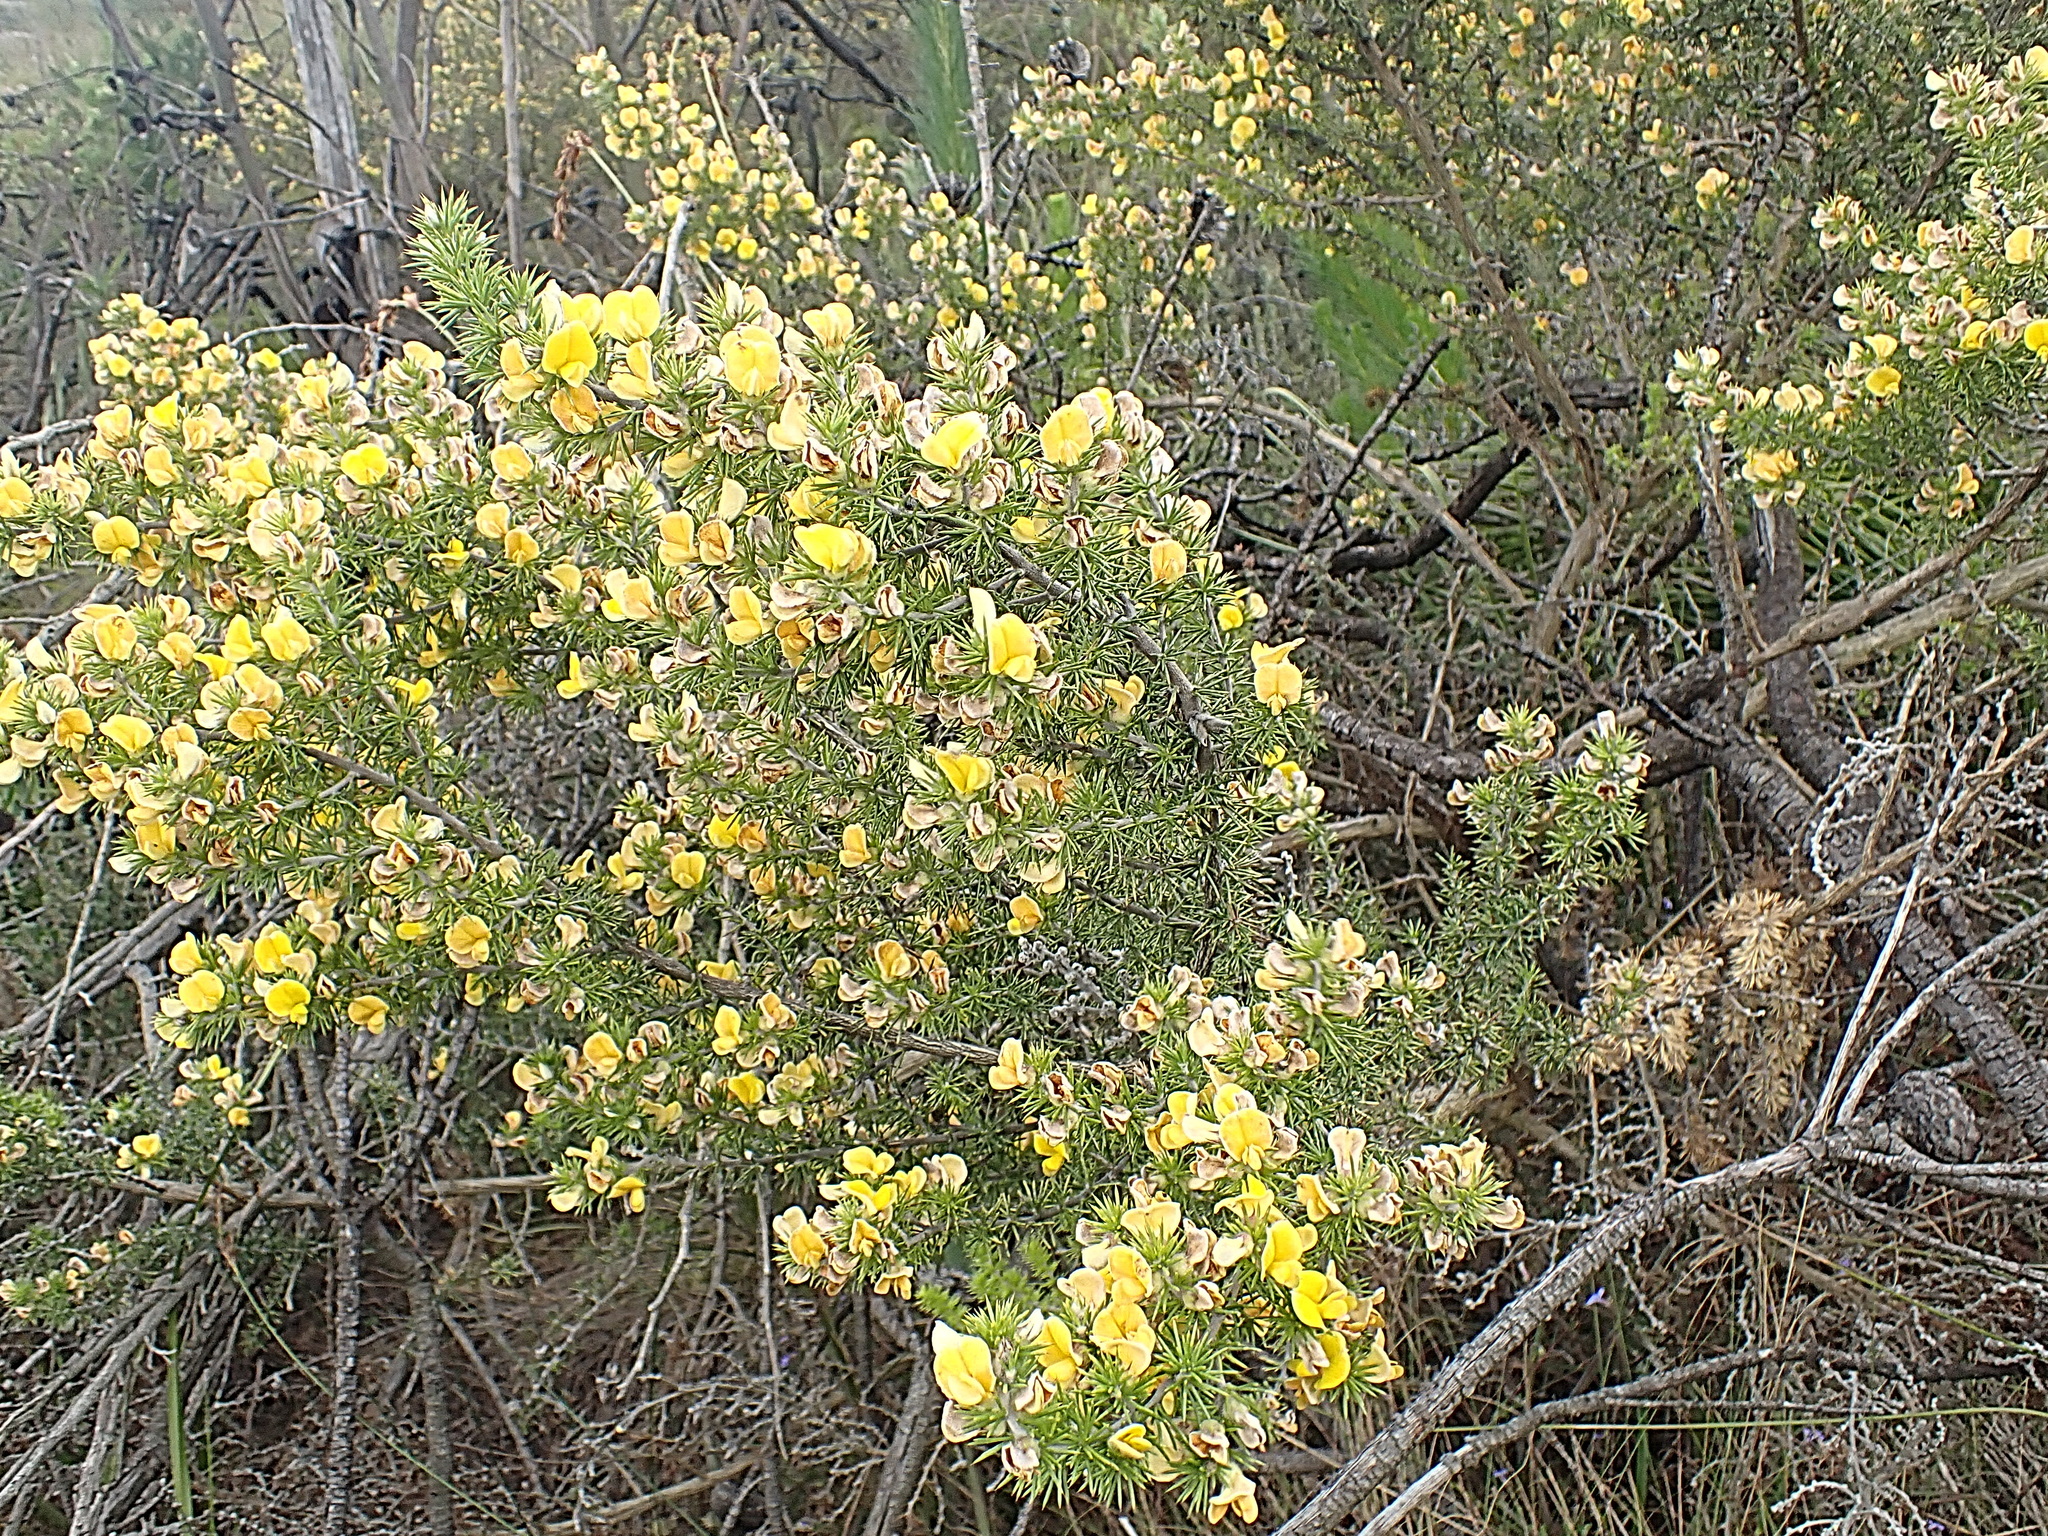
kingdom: Plantae
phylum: Tracheophyta
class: Magnoliopsida
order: Fabales
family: Fabaceae
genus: Aspalathus
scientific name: Aspalathus hirta
